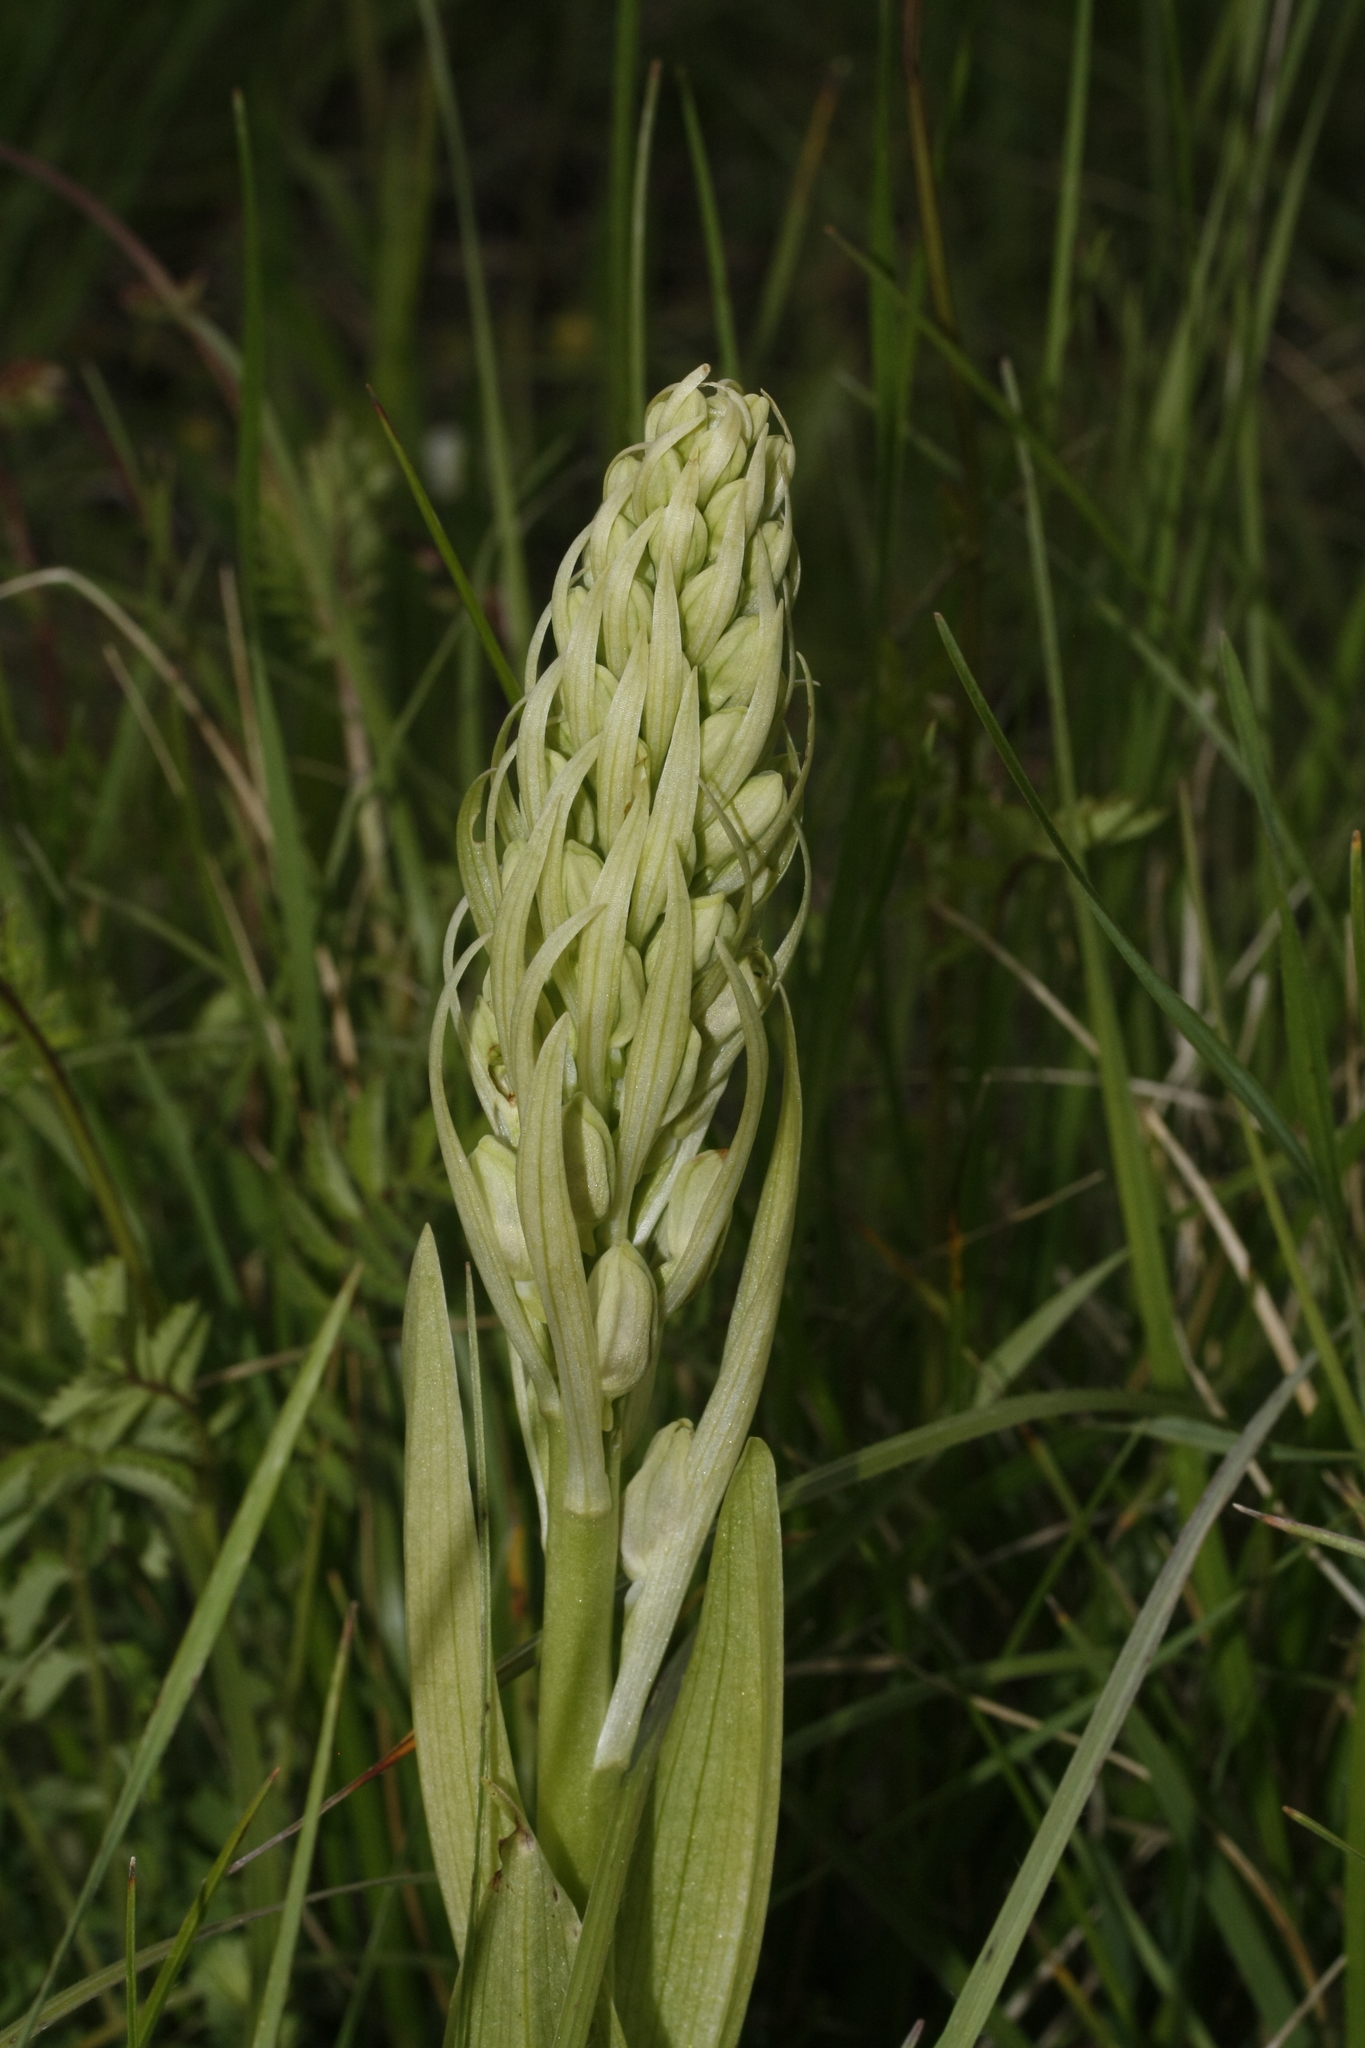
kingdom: Plantae
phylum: Tracheophyta
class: Liliopsida
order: Asparagales
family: Orchidaceae
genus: Himantoglossum
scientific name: Himantoglossum hircinum
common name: Lizard orchid
